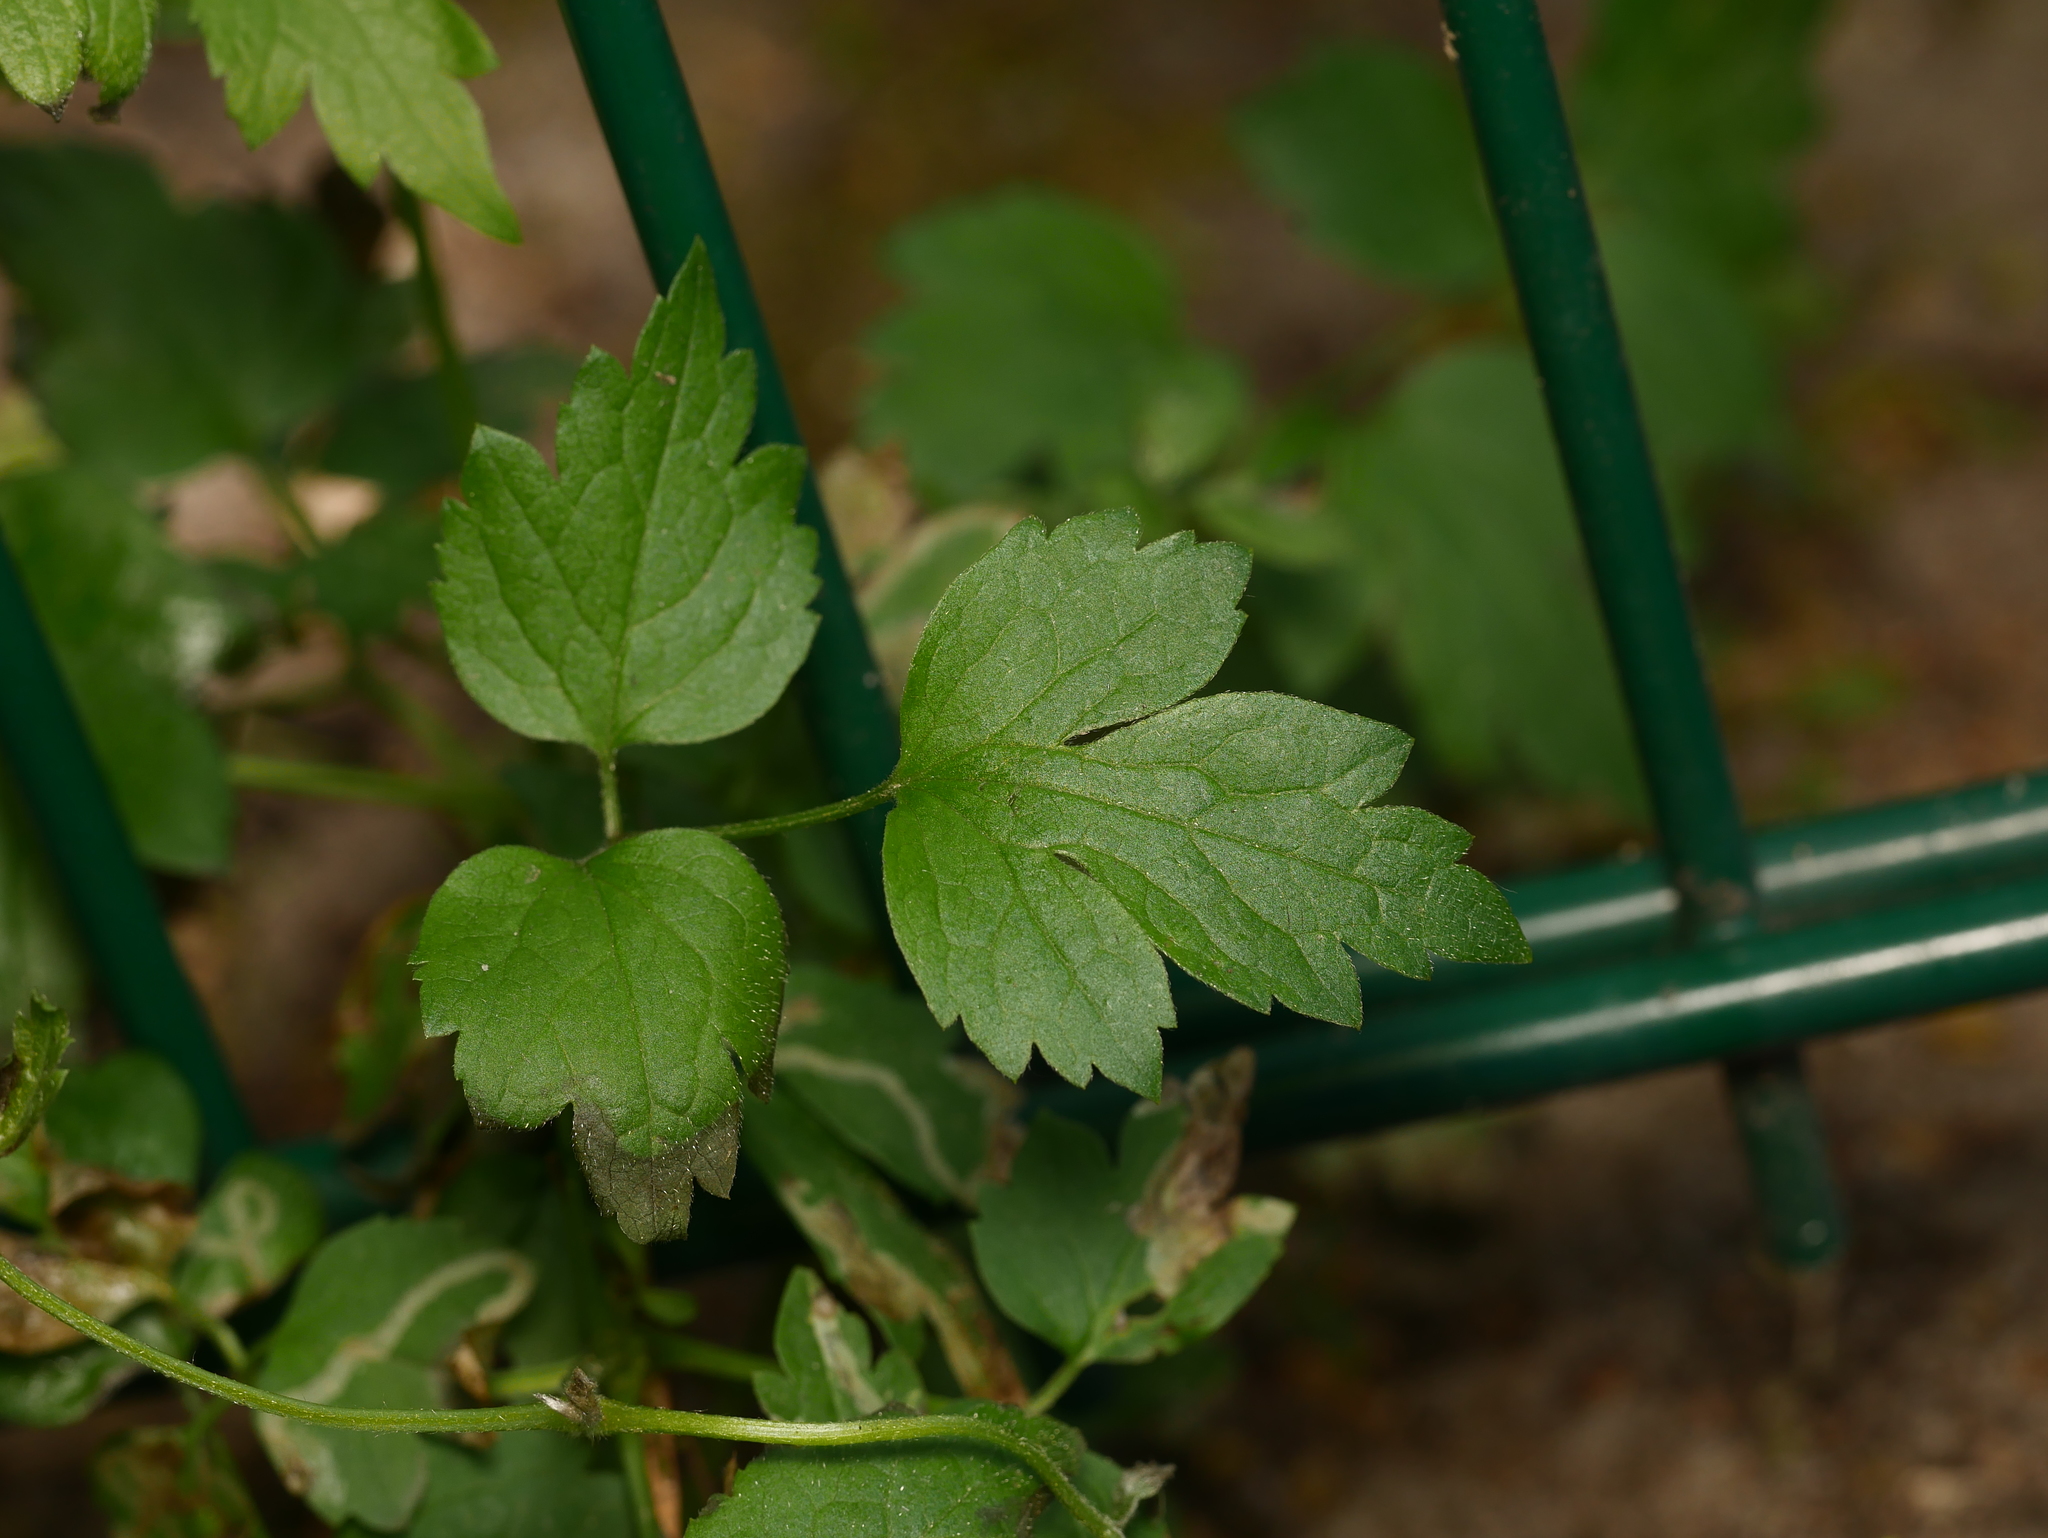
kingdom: Plantae
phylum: Tracheophyta
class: Magnoliopsida
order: Ranunculales
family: Ranunculaceae
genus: Clematis
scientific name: Clematis vitalba
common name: Evergreen clematis
